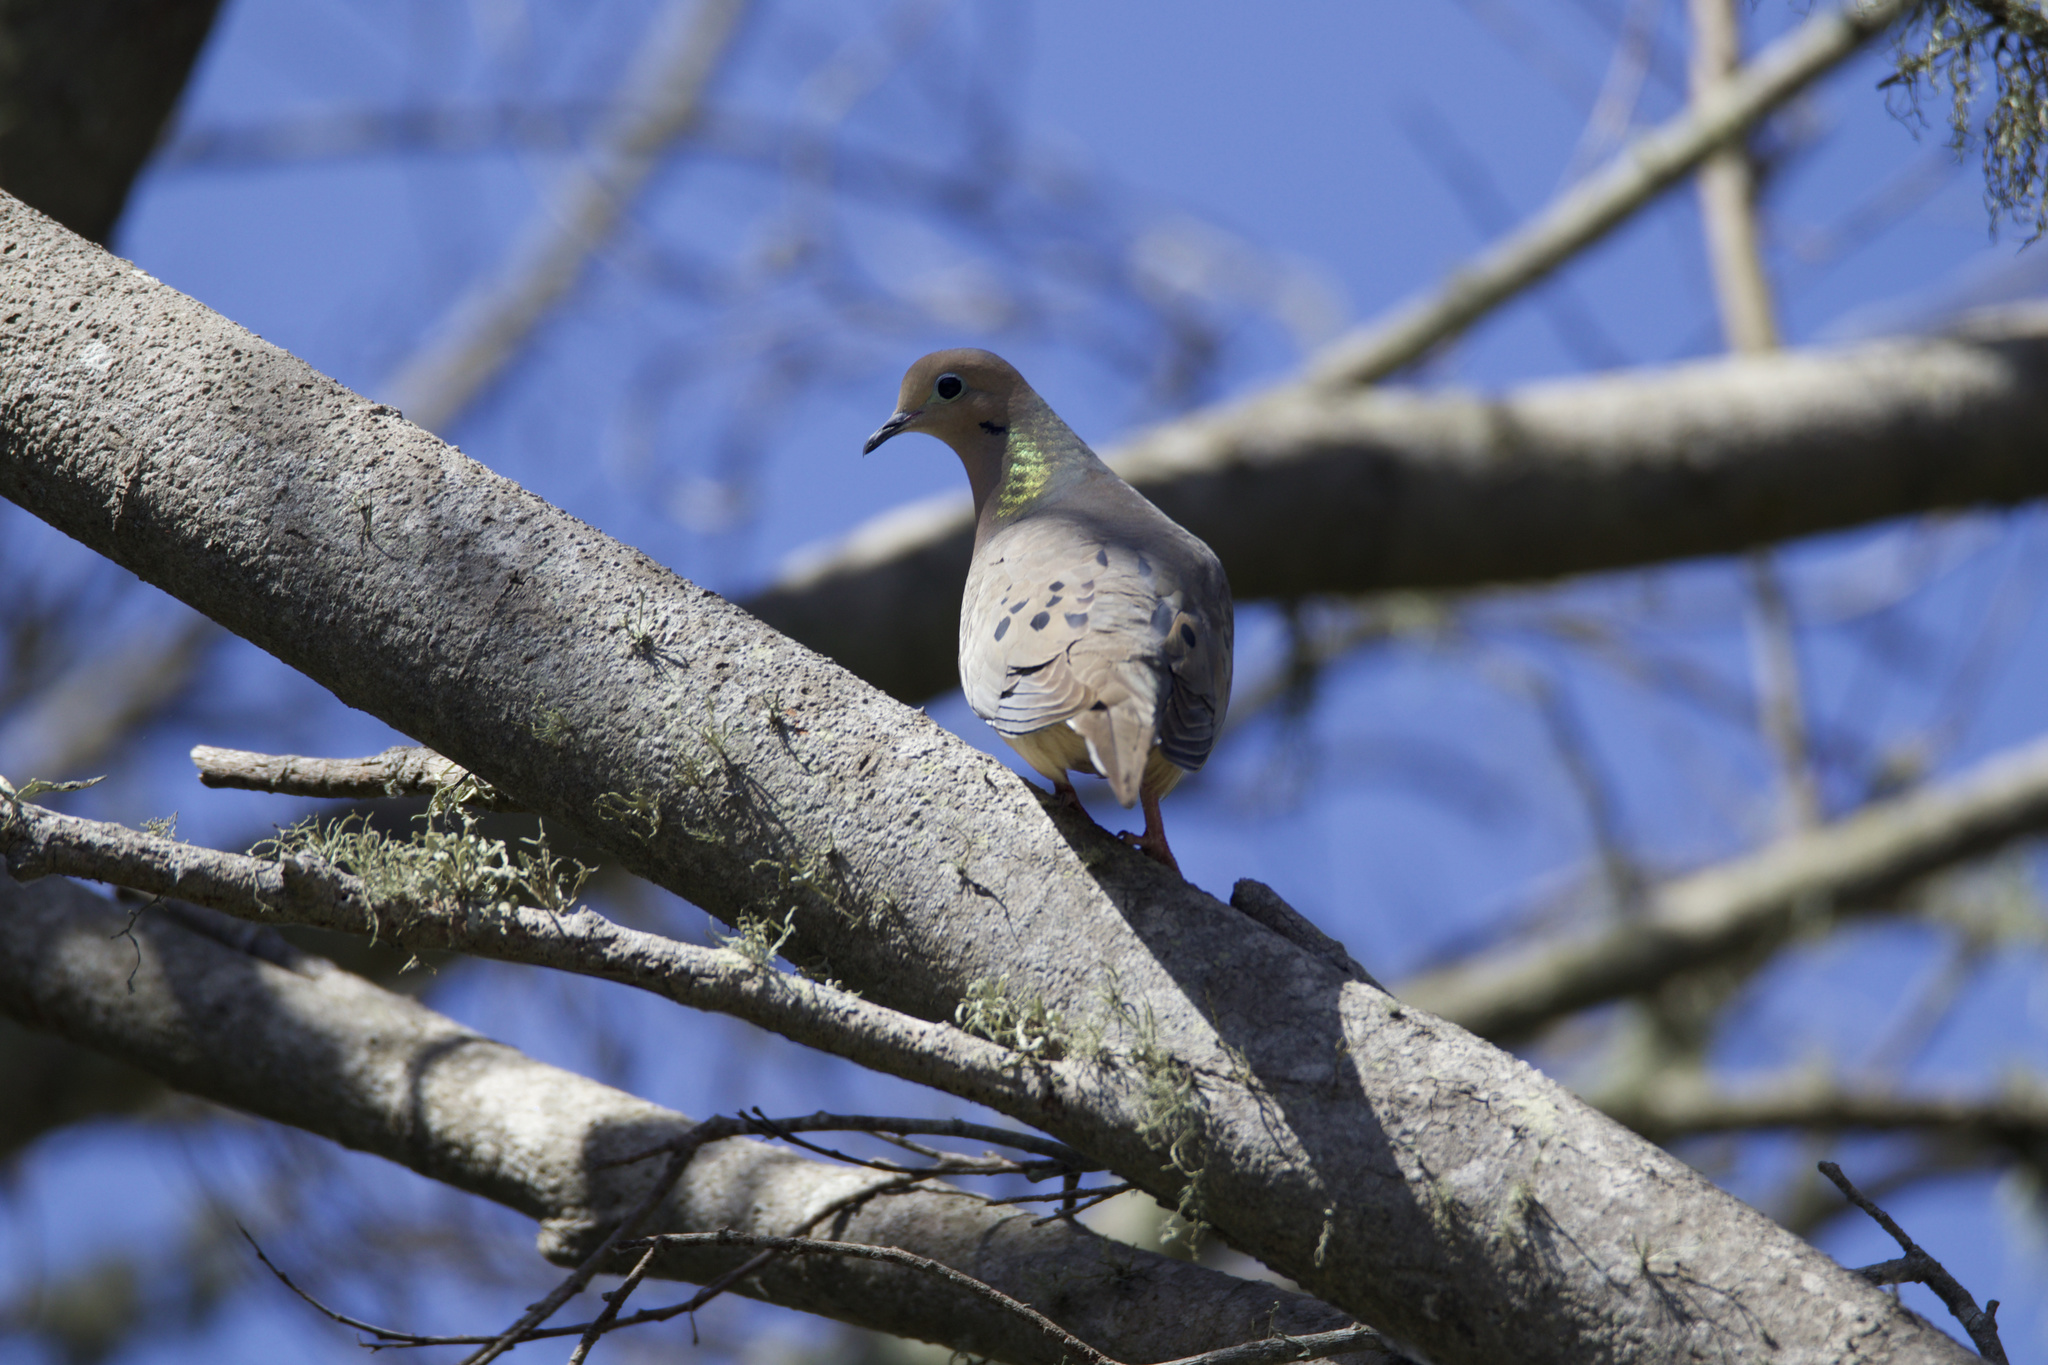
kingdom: Animalia
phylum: Chordata
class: Aves
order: Columbiformes
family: Columbidae
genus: Zenaida
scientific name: Zenaida macroura
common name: Mourning dove
